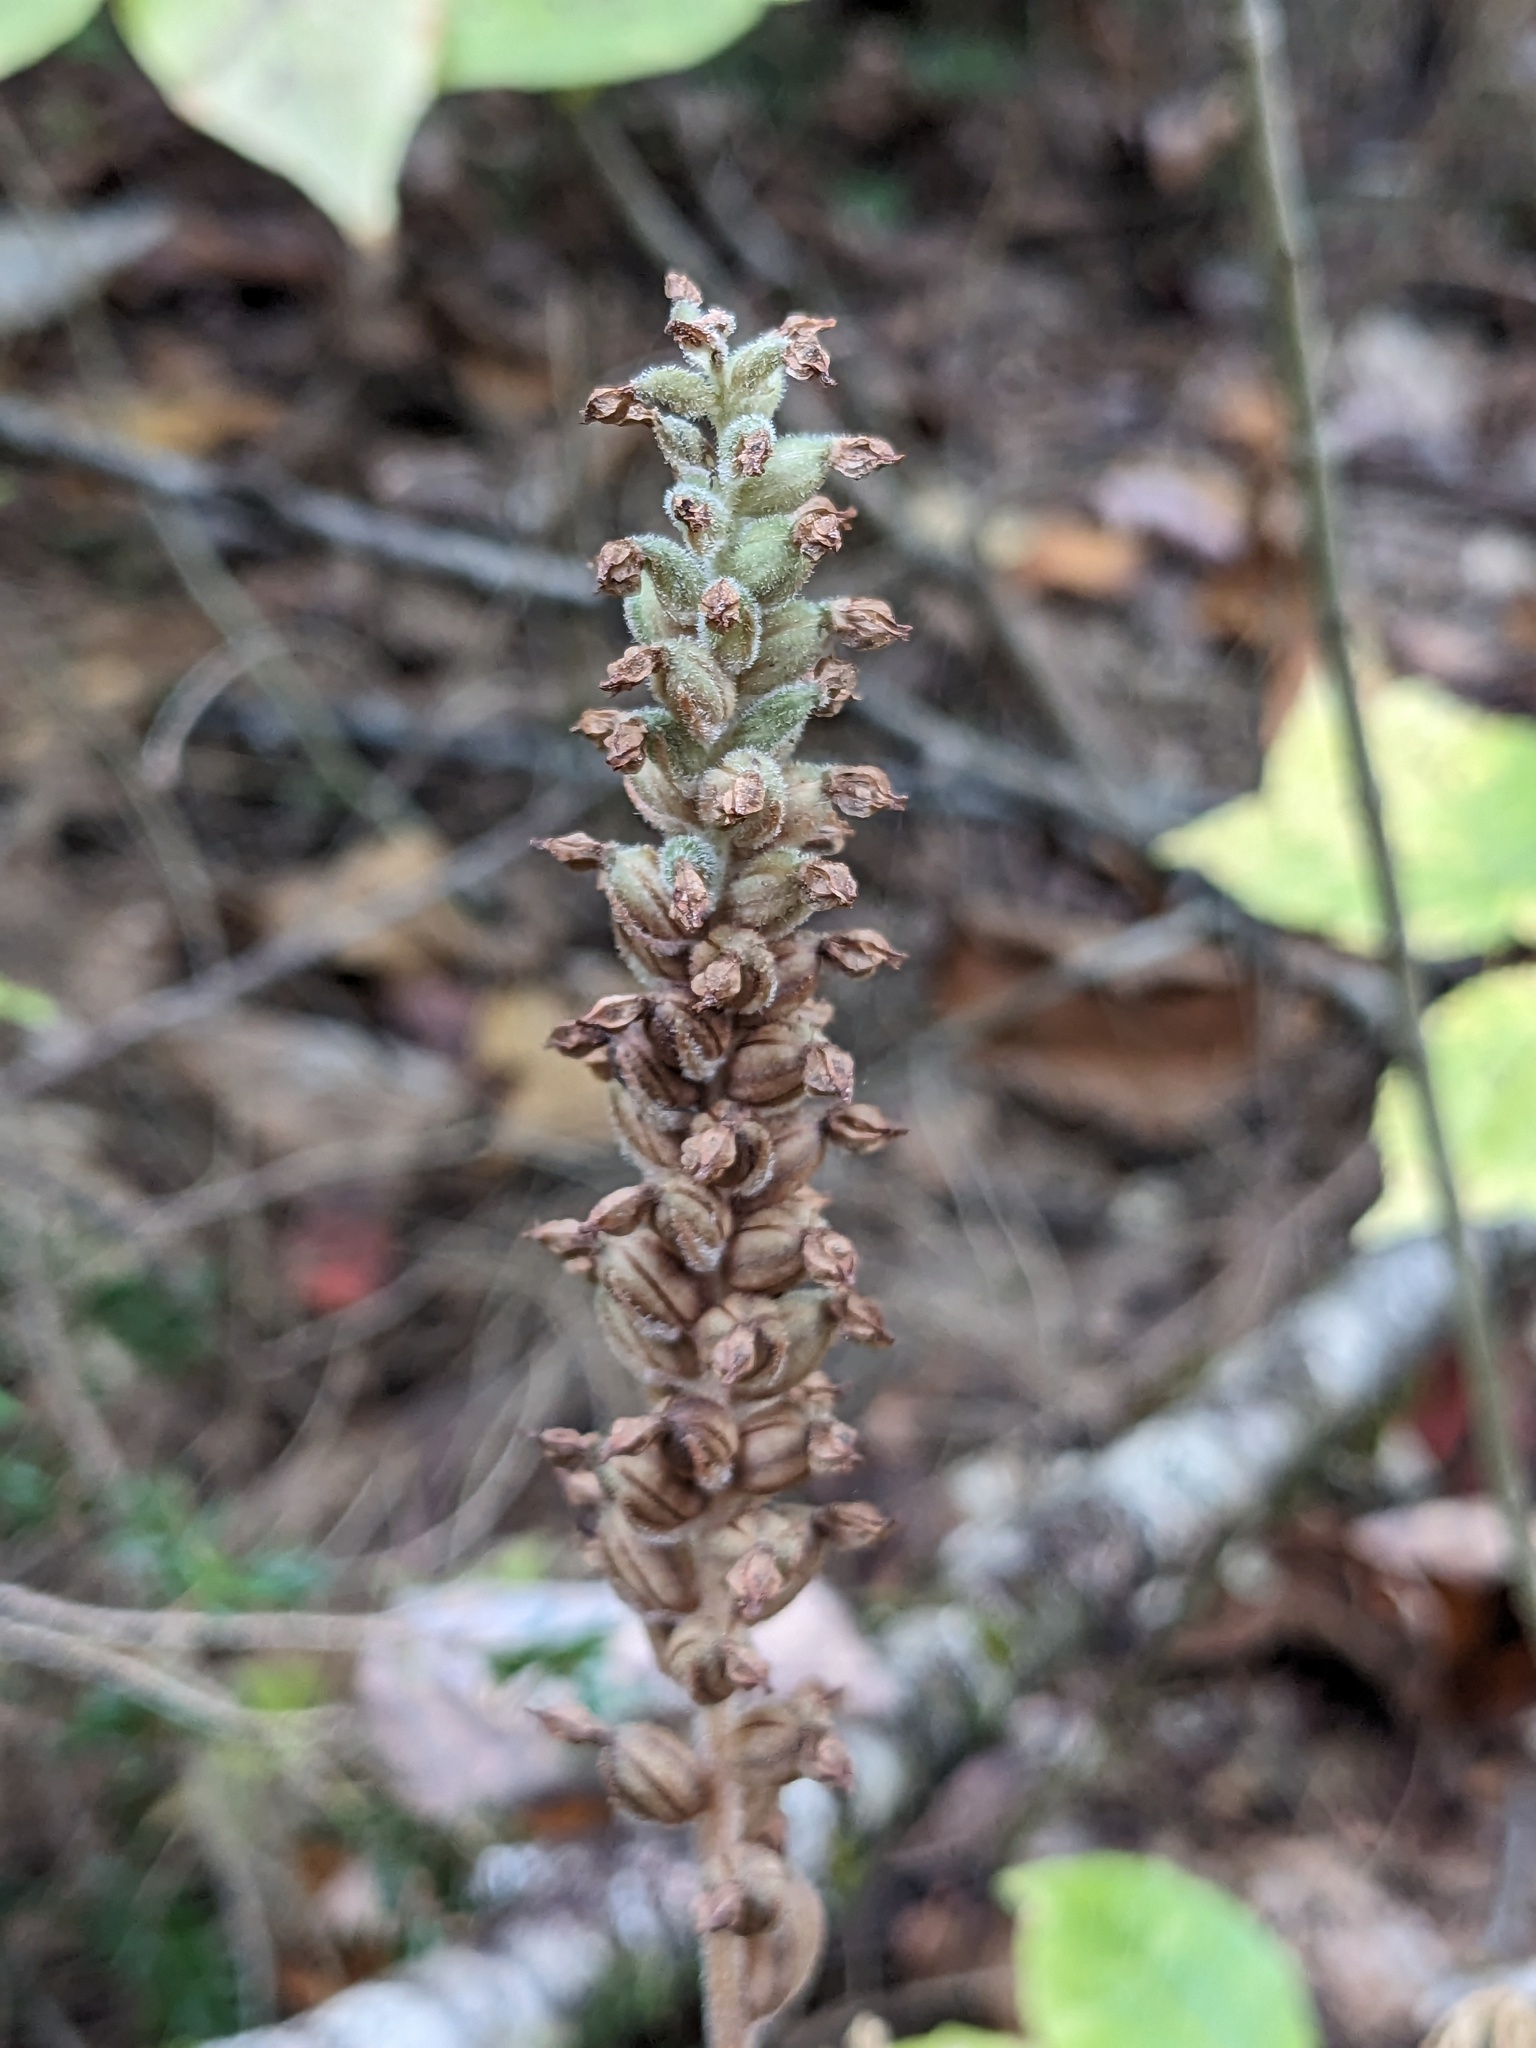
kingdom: Plantae
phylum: Tracheophyta
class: Liliopsida
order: Asparagales
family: Orchidaceae
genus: Goodyera
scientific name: Goodyera pubescens
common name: Downy rattlesnake-plantain
